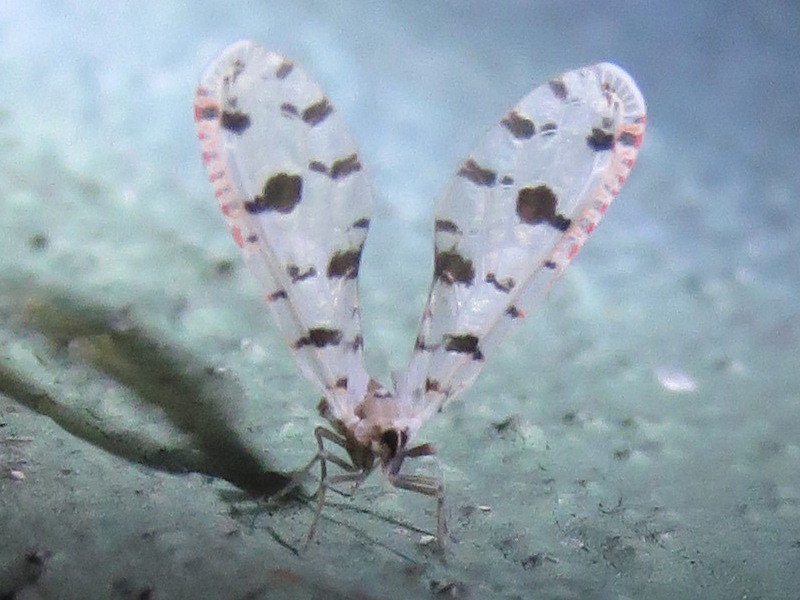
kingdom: Animalia
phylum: Arthropoda
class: Insecta
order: Hemiptera
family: Derbidae
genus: Sikaiana
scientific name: Sikaiana harti
